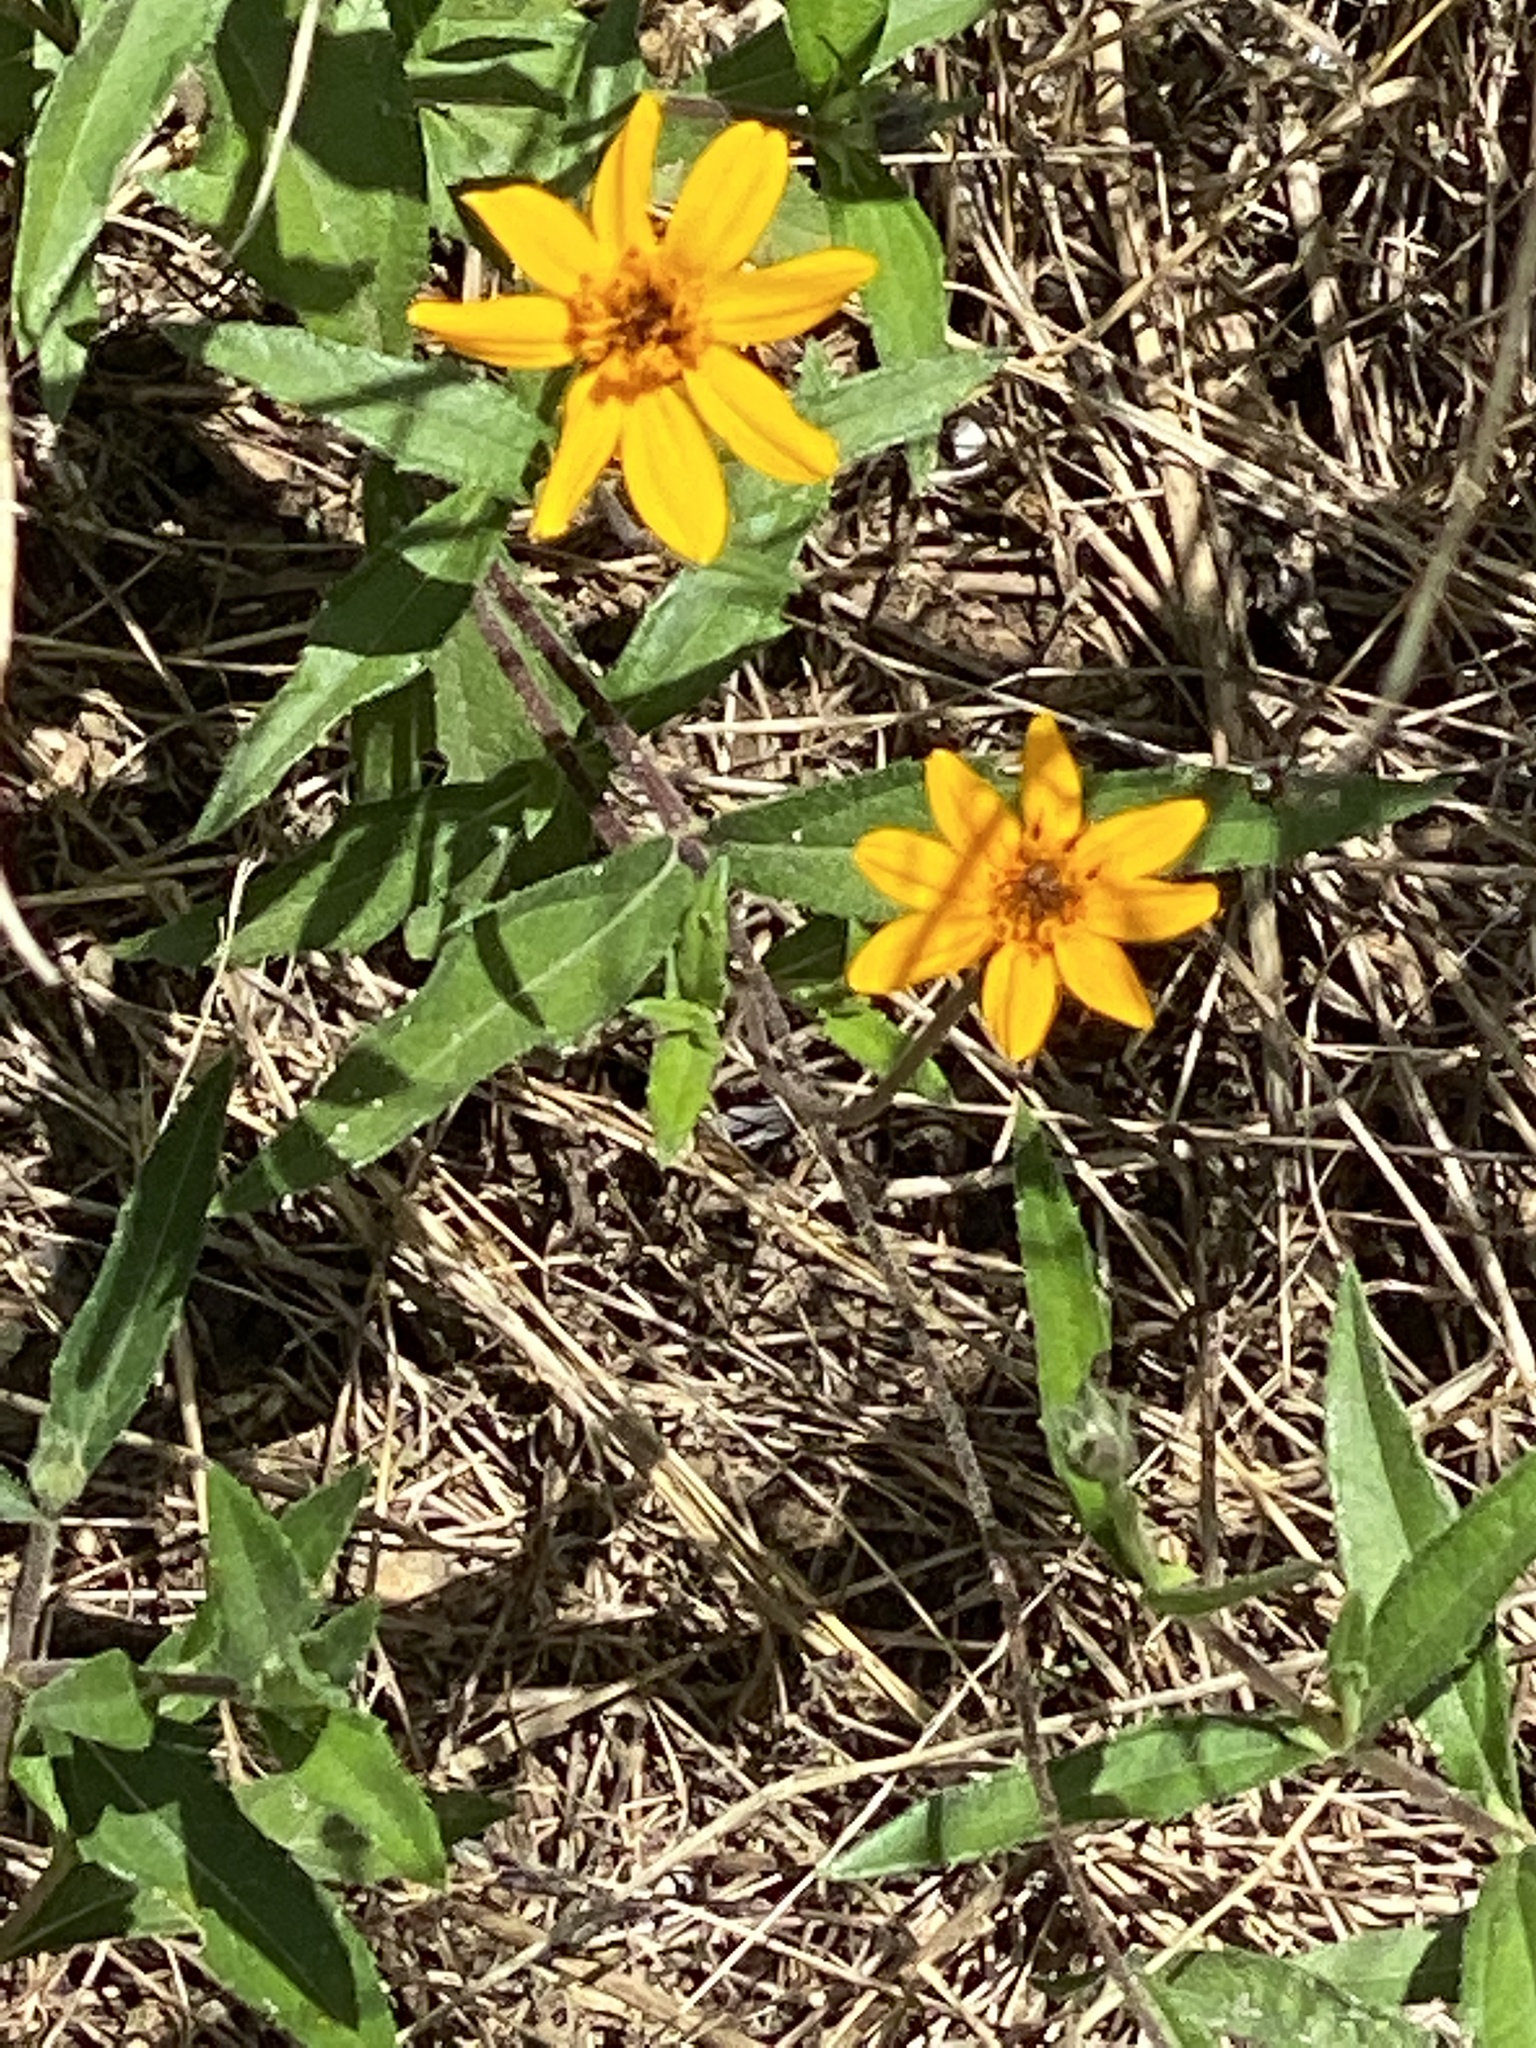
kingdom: Plantae
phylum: Tracheophyta
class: Magnoliopsida
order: Asterales
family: Asteraceae
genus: Wedelia
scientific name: Wedelia acapulcensis
